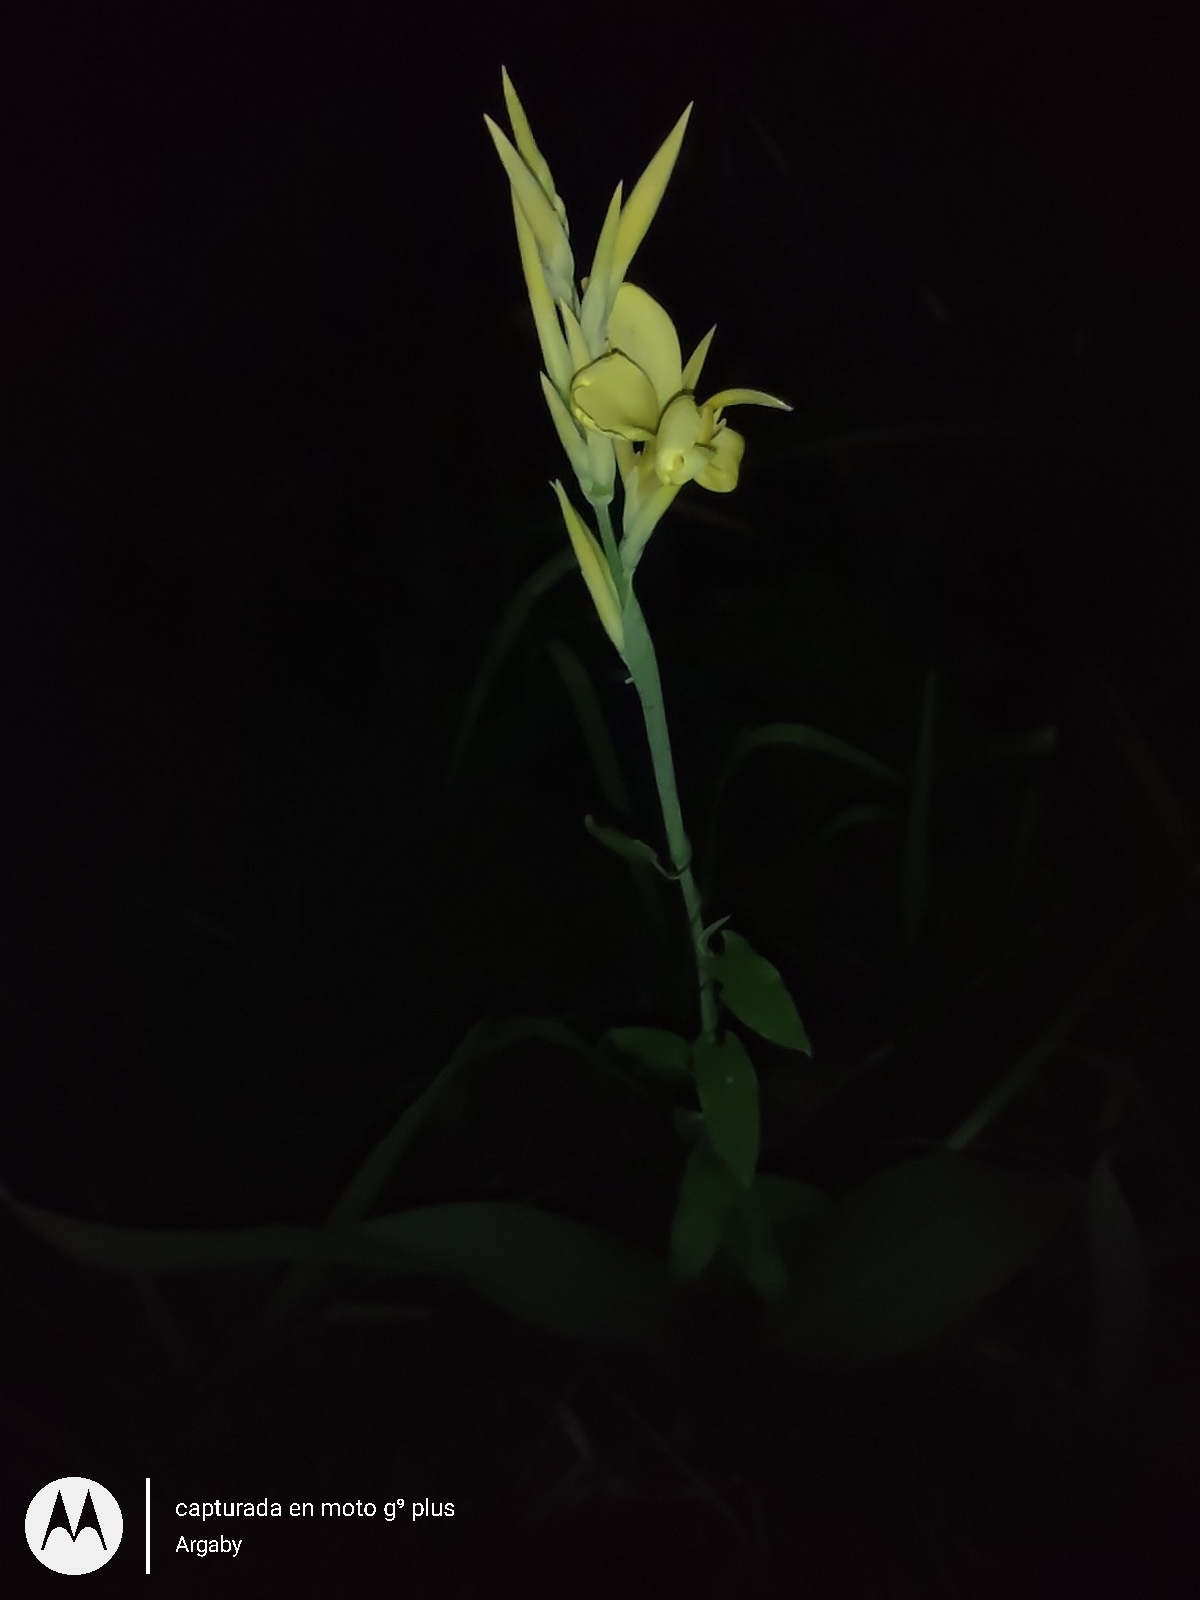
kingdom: Plantae
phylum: Tracheophyta
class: Liliopsida
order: Zingiberales
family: Cannaceae
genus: Canna
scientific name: Canna glauca
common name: Louisiana canna
